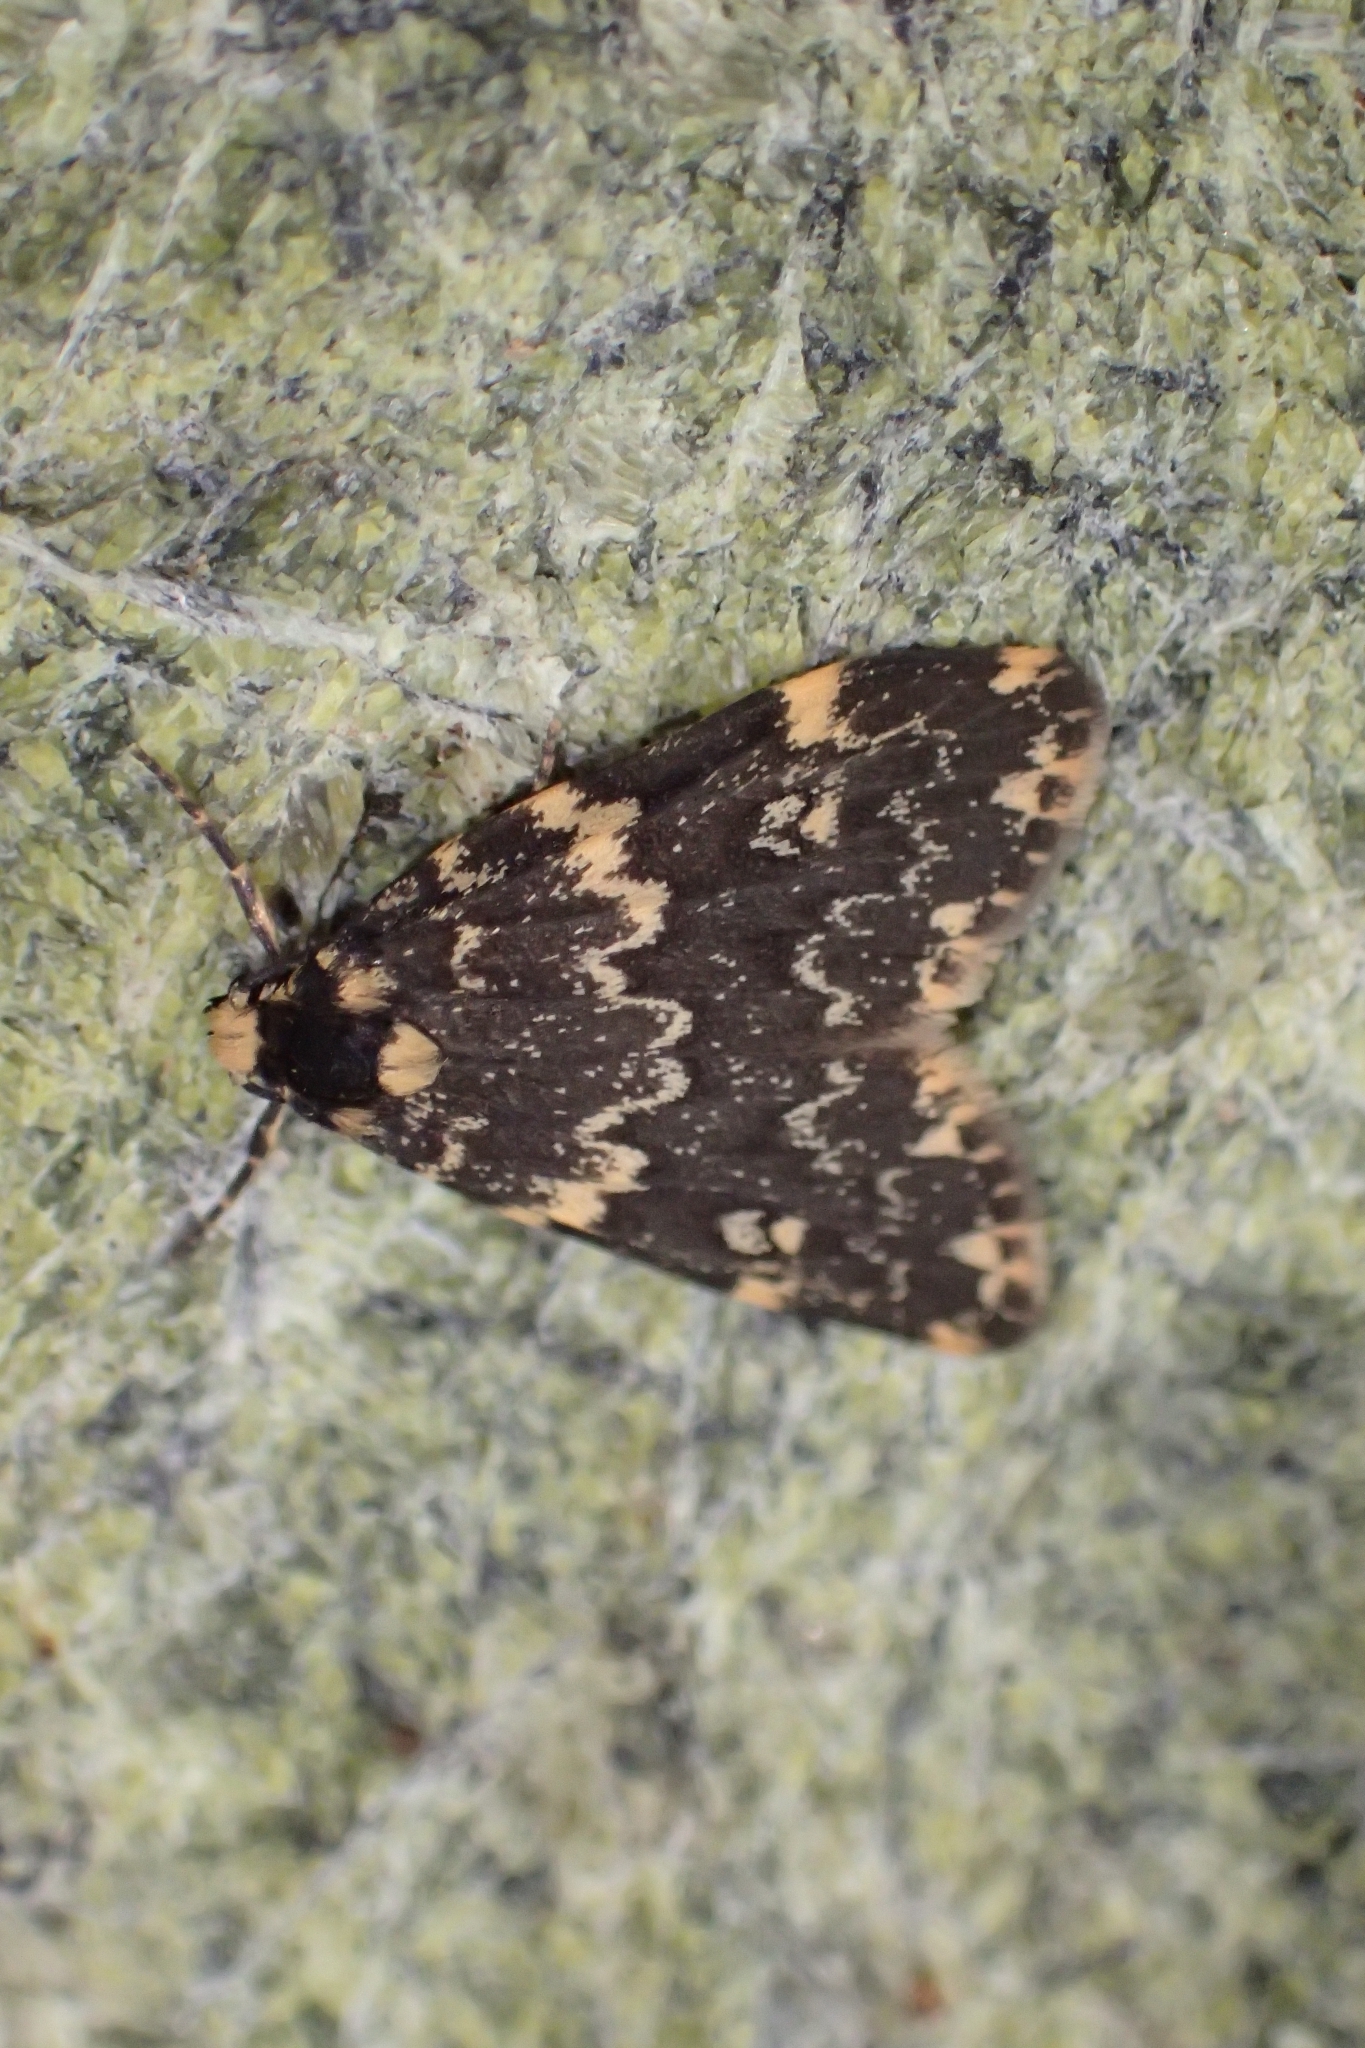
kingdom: Animalia
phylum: Arthropoda
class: Insecta
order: Lepidoptera
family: Erebidae
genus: Halone
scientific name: Halone sinuata
